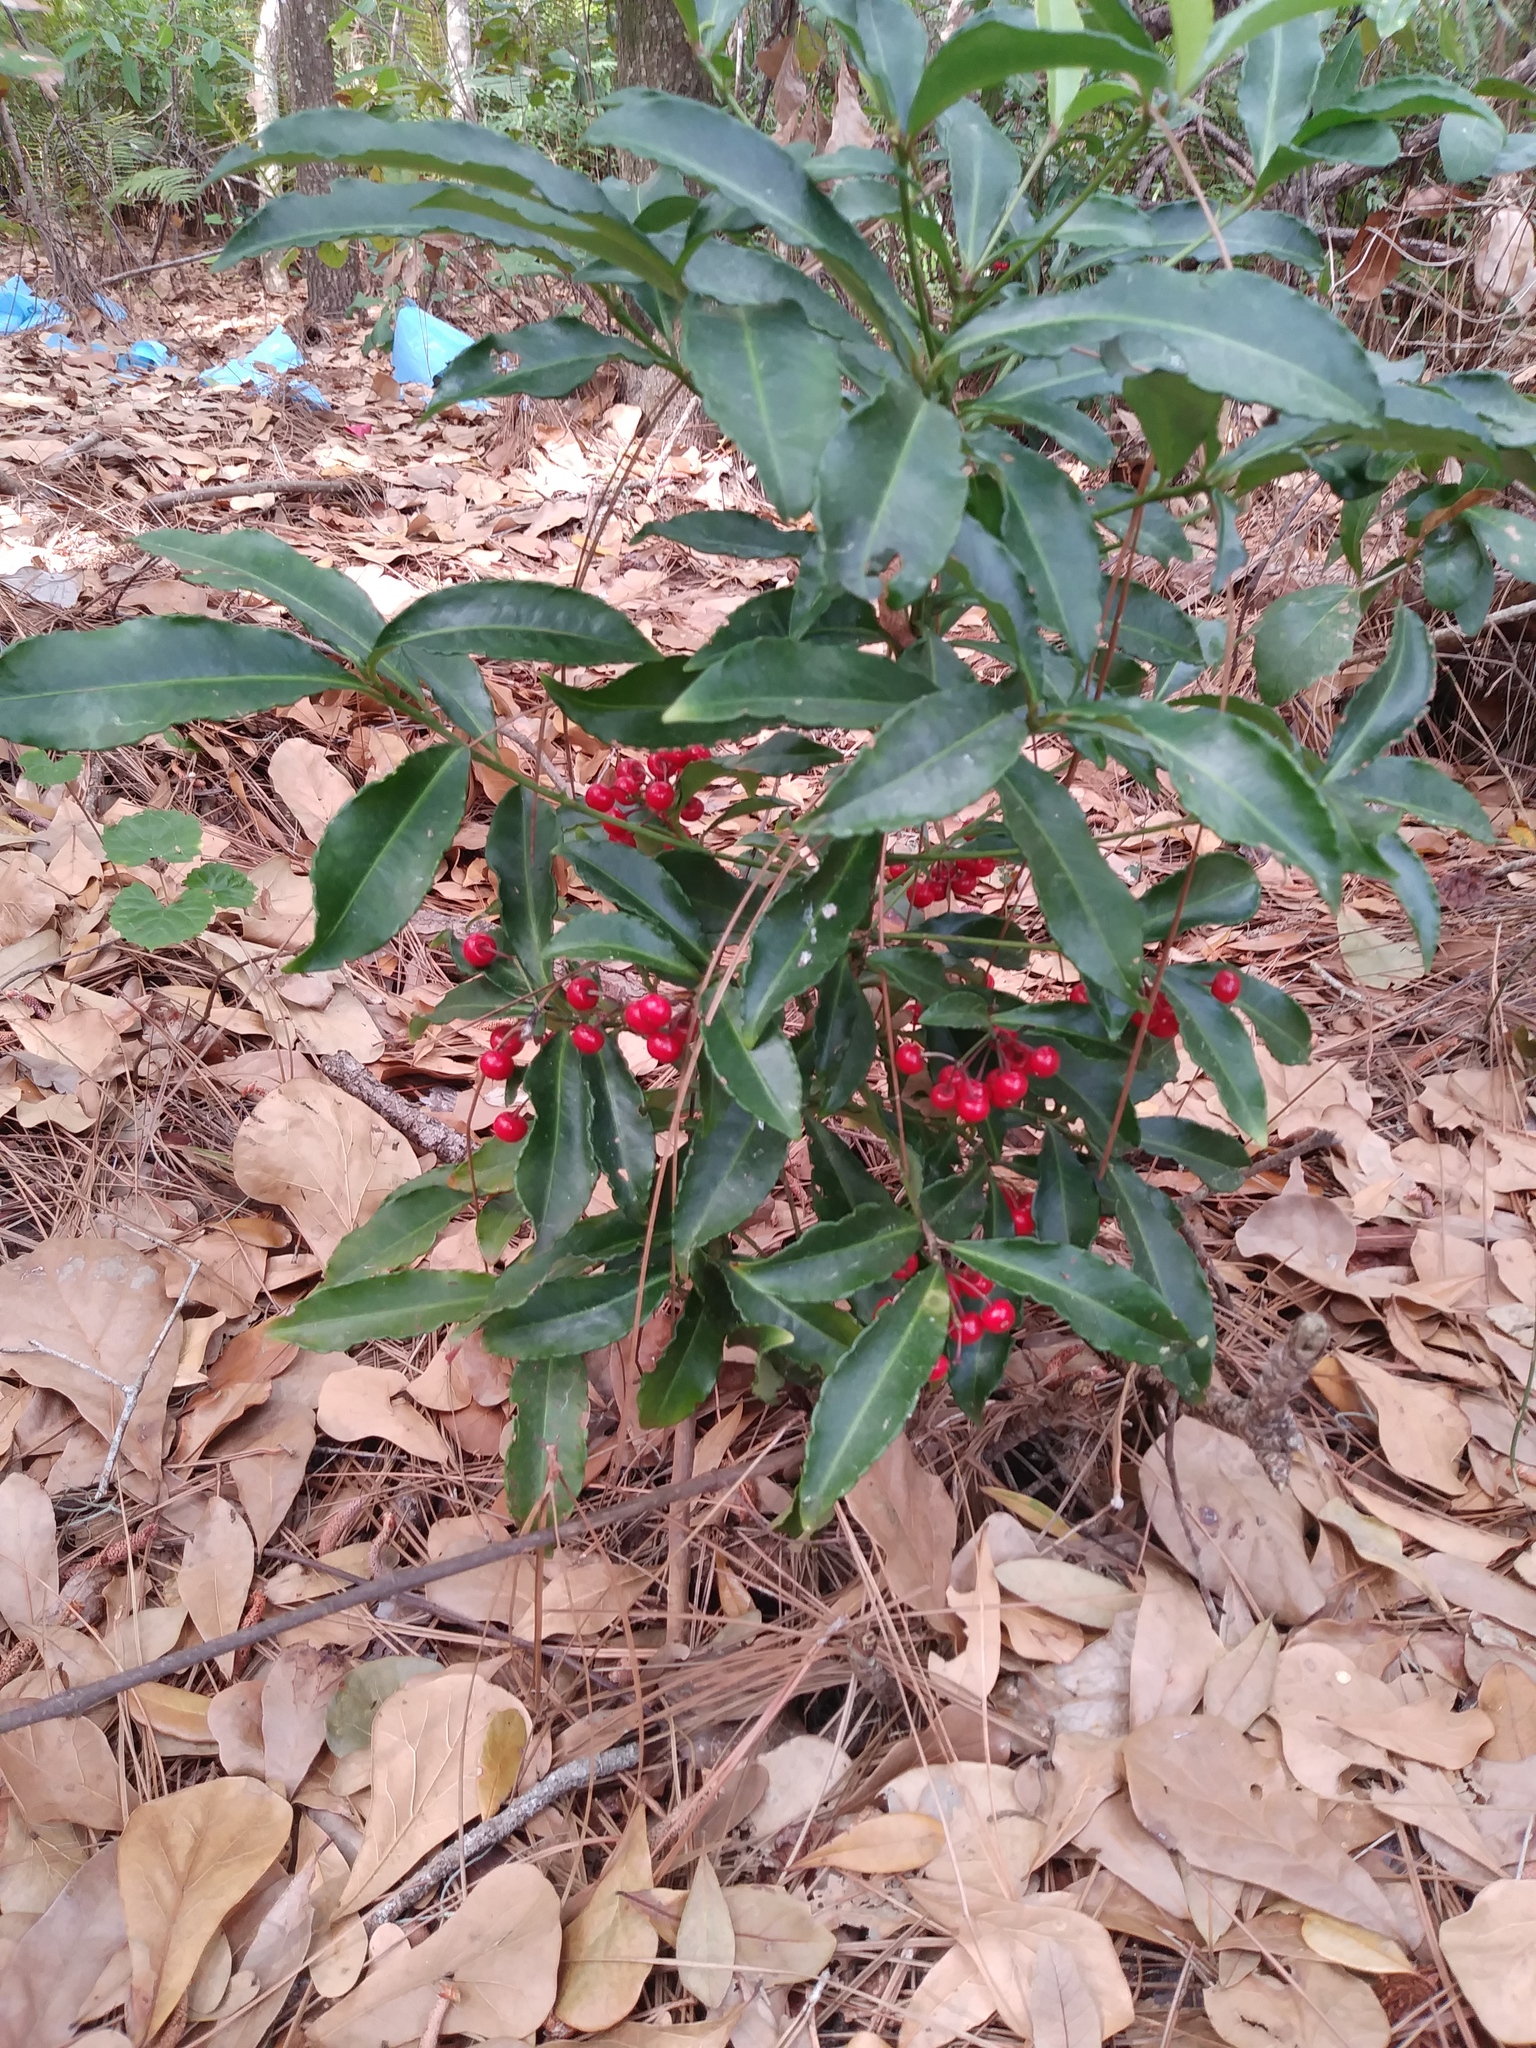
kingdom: Plantae
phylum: Tracheophyta
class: Magnoliopsida
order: Ericales
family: Primulaceae
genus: Ardisia
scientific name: Ardisia crenata
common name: Hen's eyes
